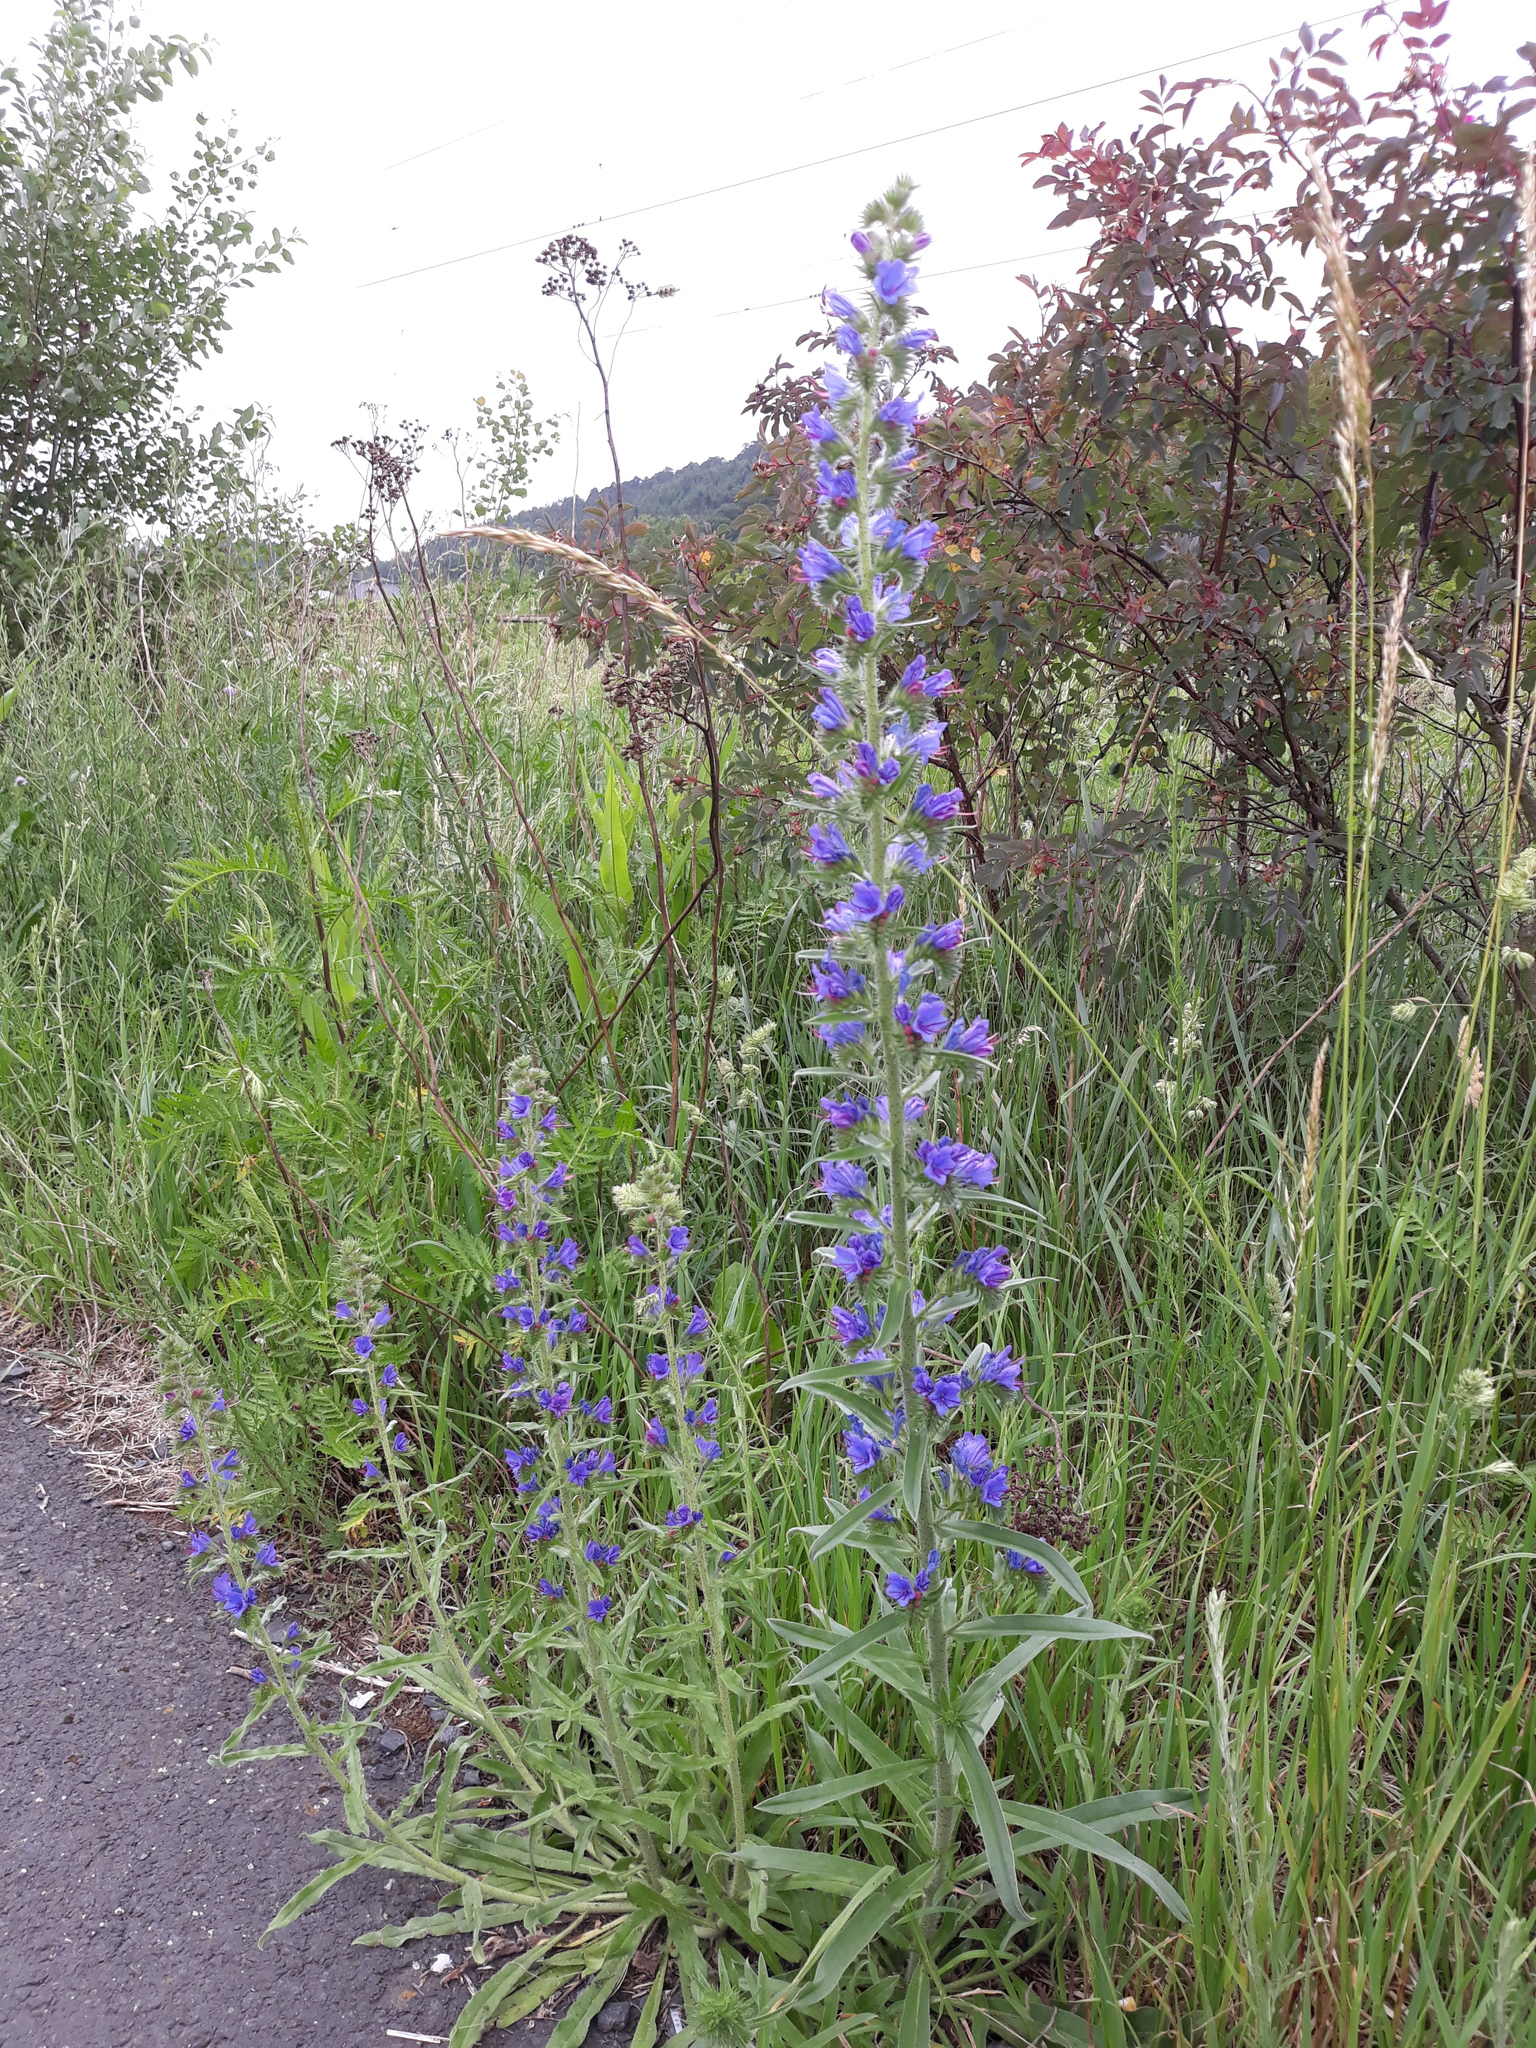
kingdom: Plantae
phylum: Tracheophyta
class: Magnoliopsida
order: Boraginales
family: Boraginaceae
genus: Echium
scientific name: Echium vulgare
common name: Common viper's bugloss
